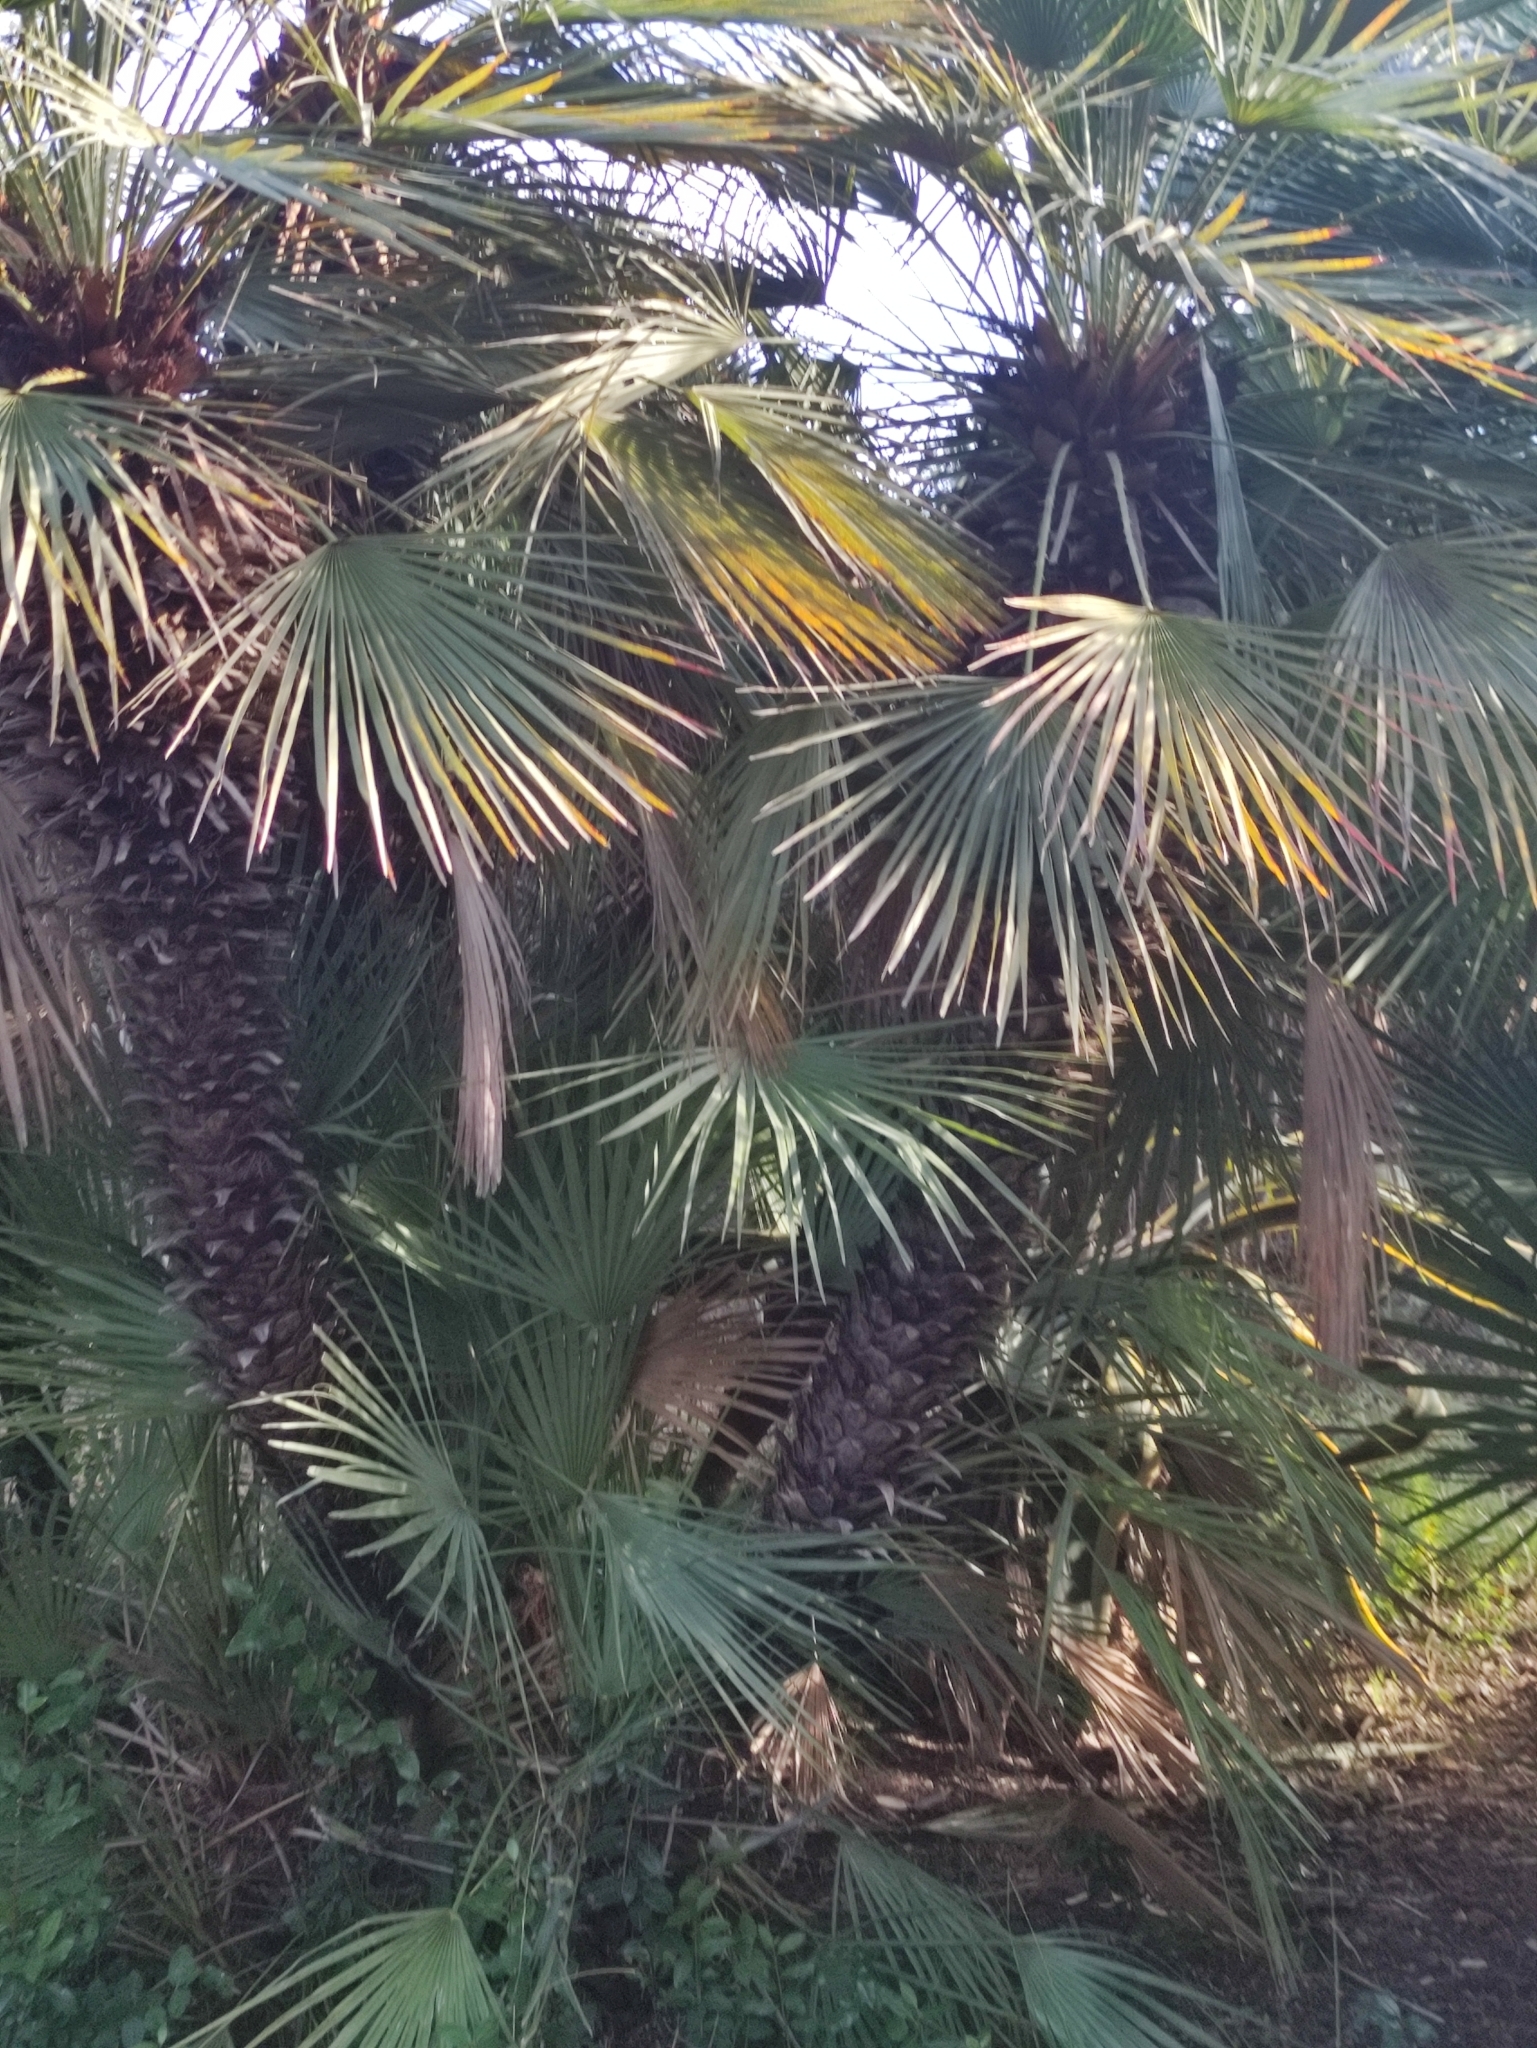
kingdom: Plantae
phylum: Tracheophyta
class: Liliopsida
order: Arecales
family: Arecaceae
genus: Chamaerops
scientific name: Chamaerops humilis
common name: Dwarf fan palm
